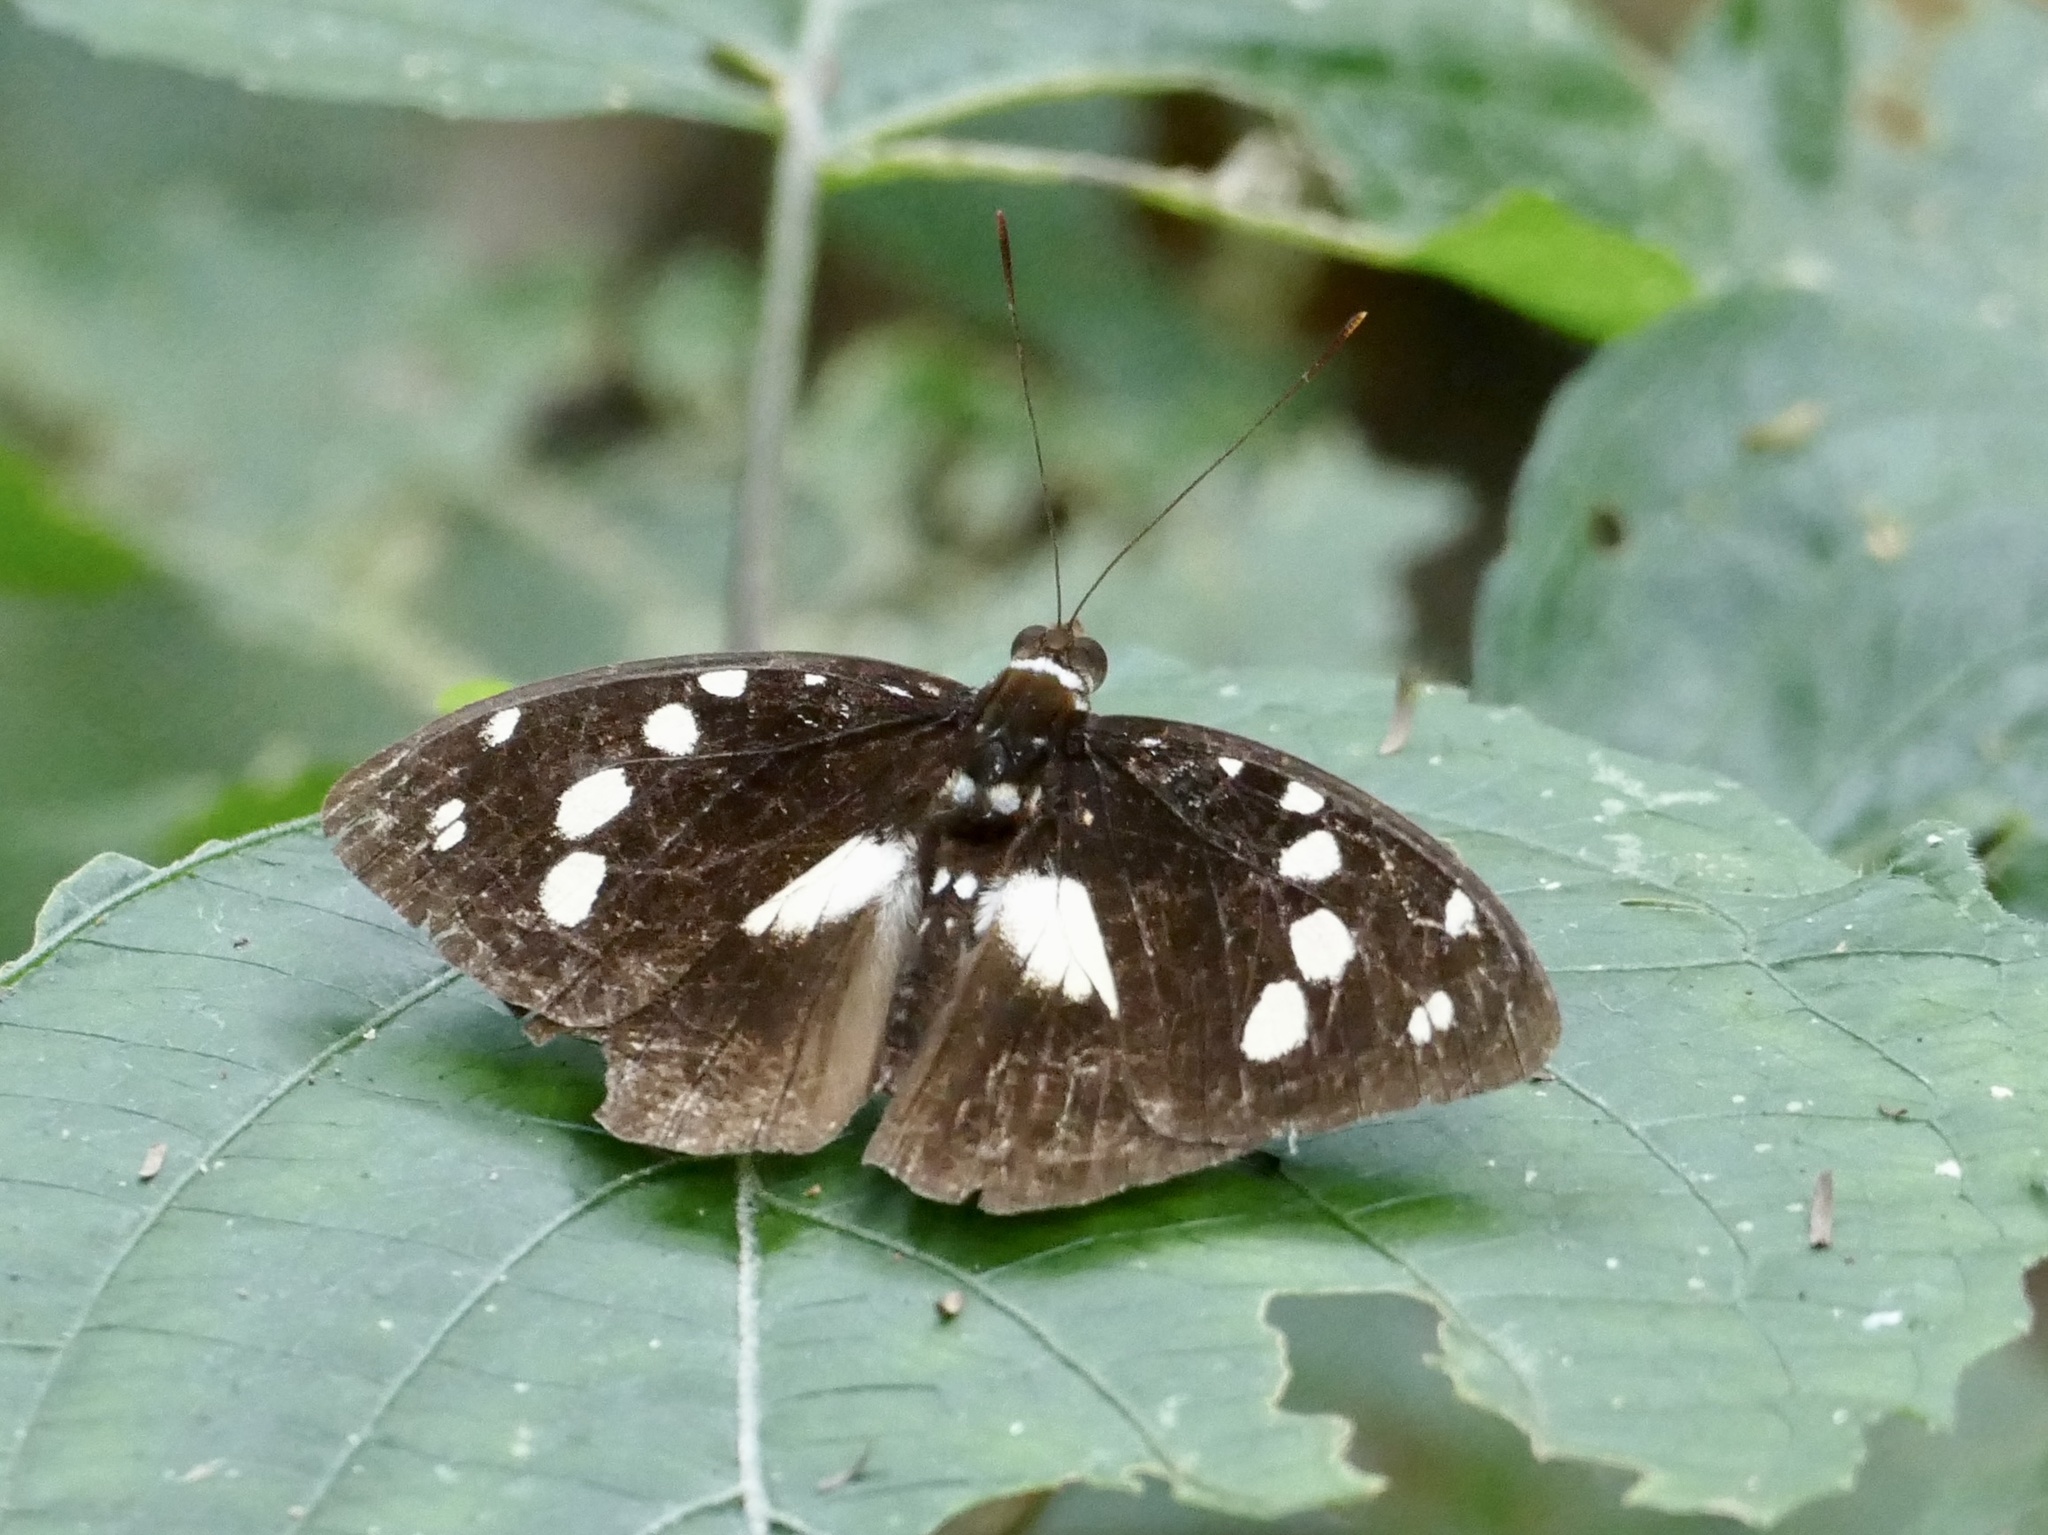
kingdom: Animalia
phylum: Arthropoda
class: Insecta
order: Lepidoptera
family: Nymphalidae
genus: Aterica
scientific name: Aterica galene
